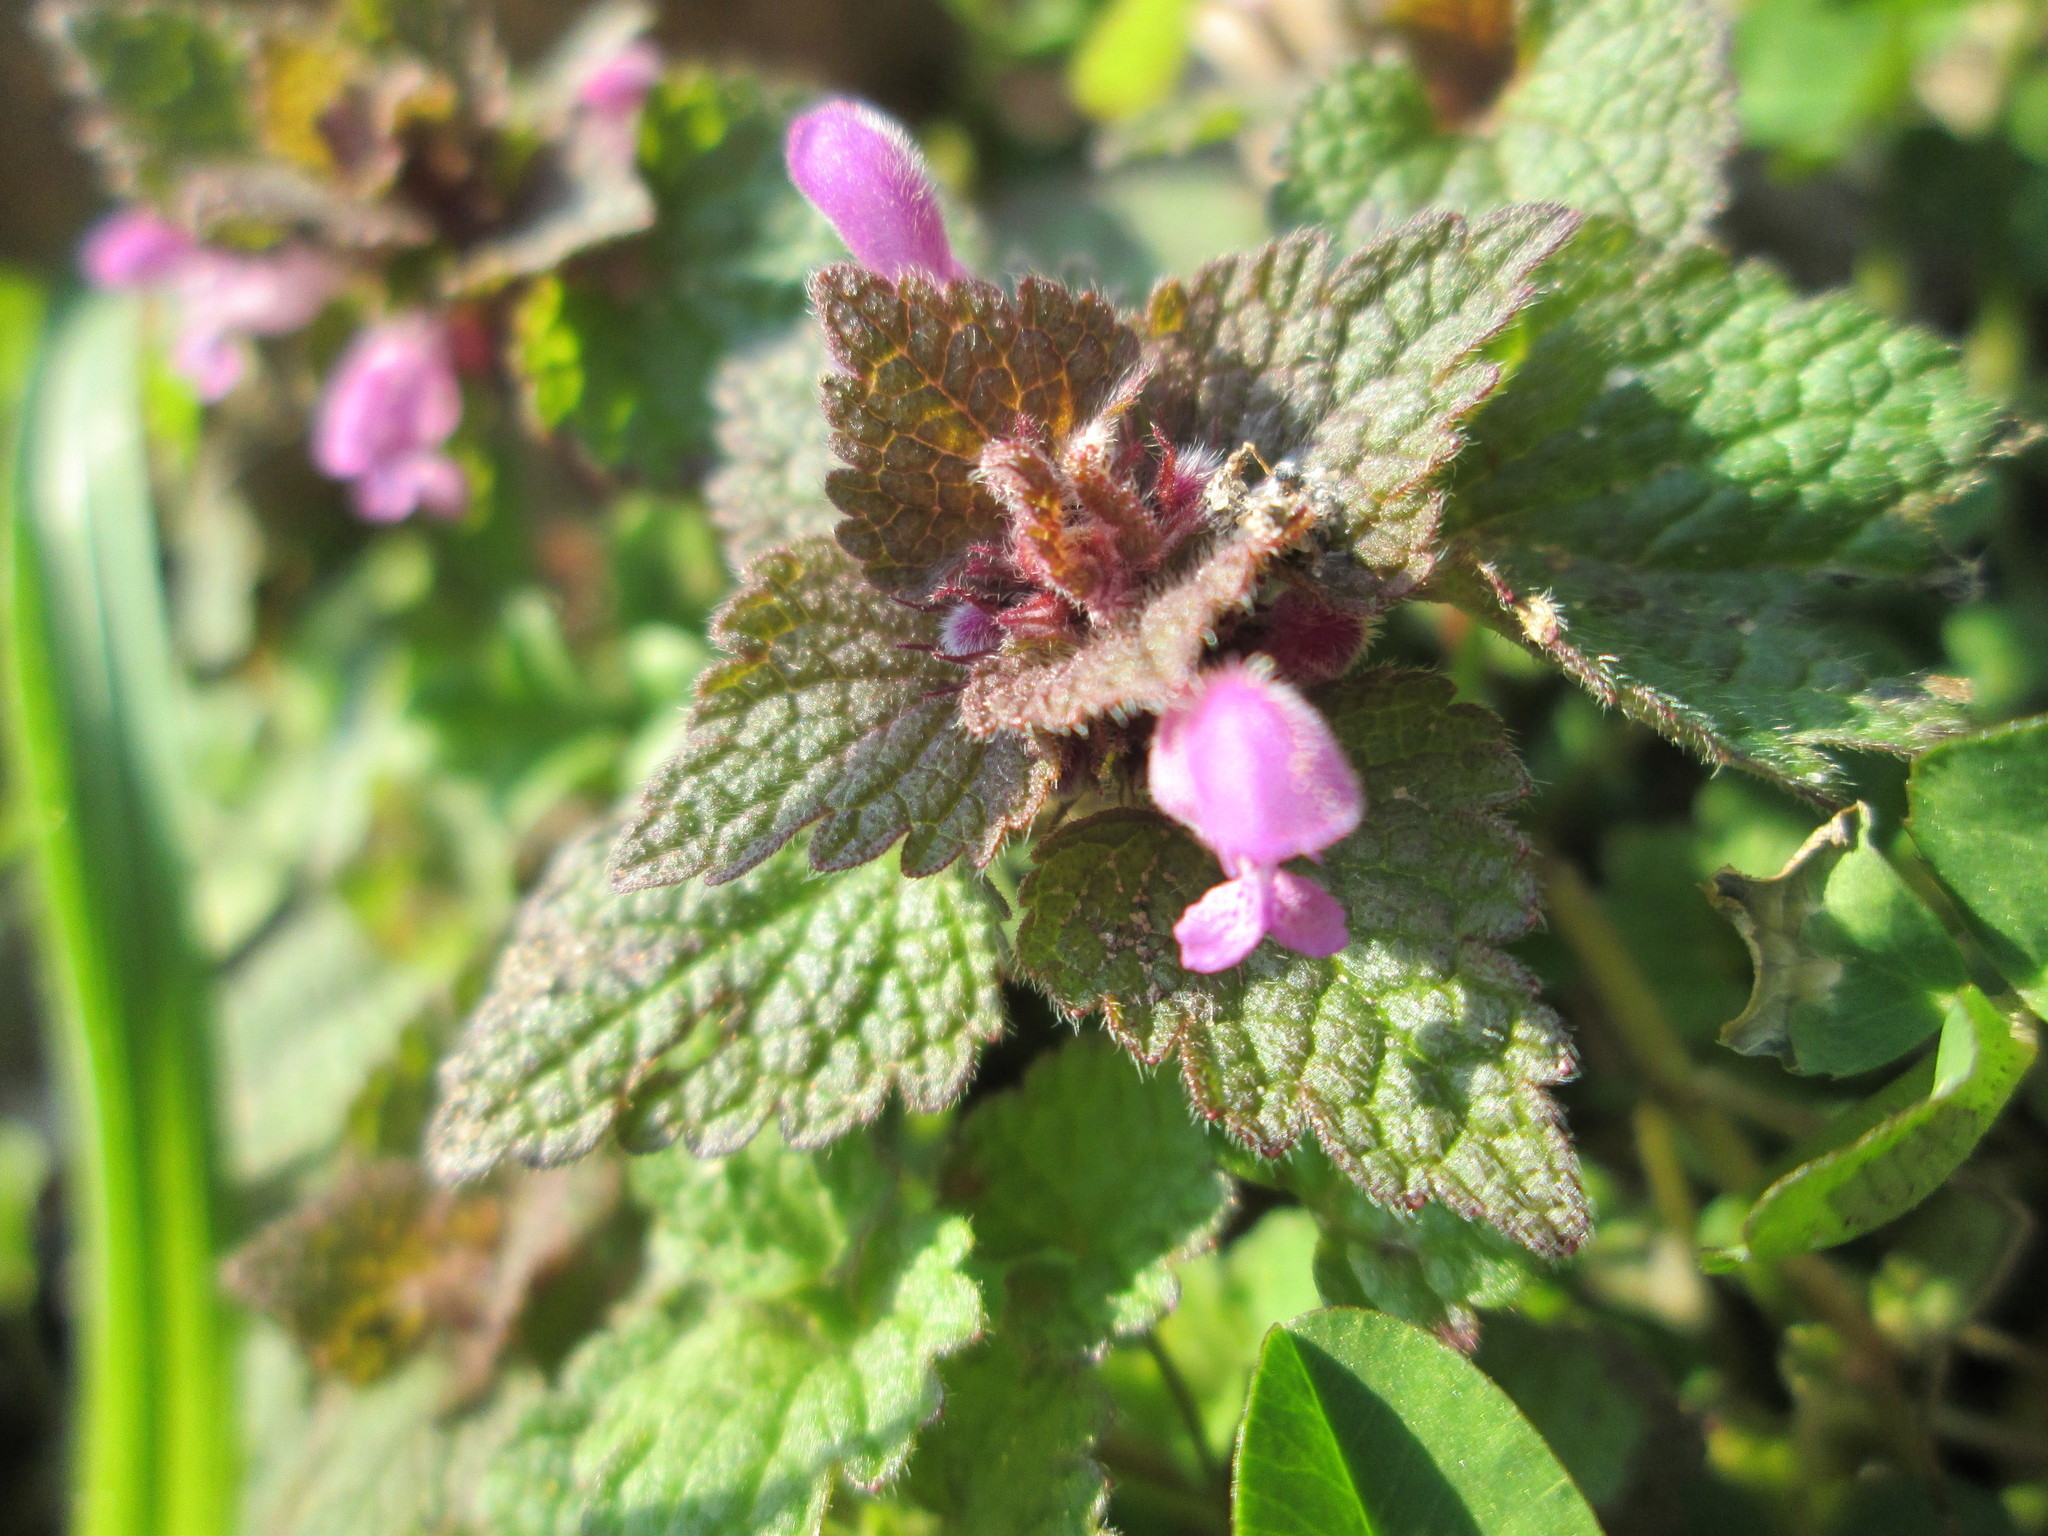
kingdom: Plantae
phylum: Tracheophyta
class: Magnoliopsida
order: Lamiales
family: Lamiaceae
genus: Lamium
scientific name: Lamium purpureum
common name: Red dead-nettle
